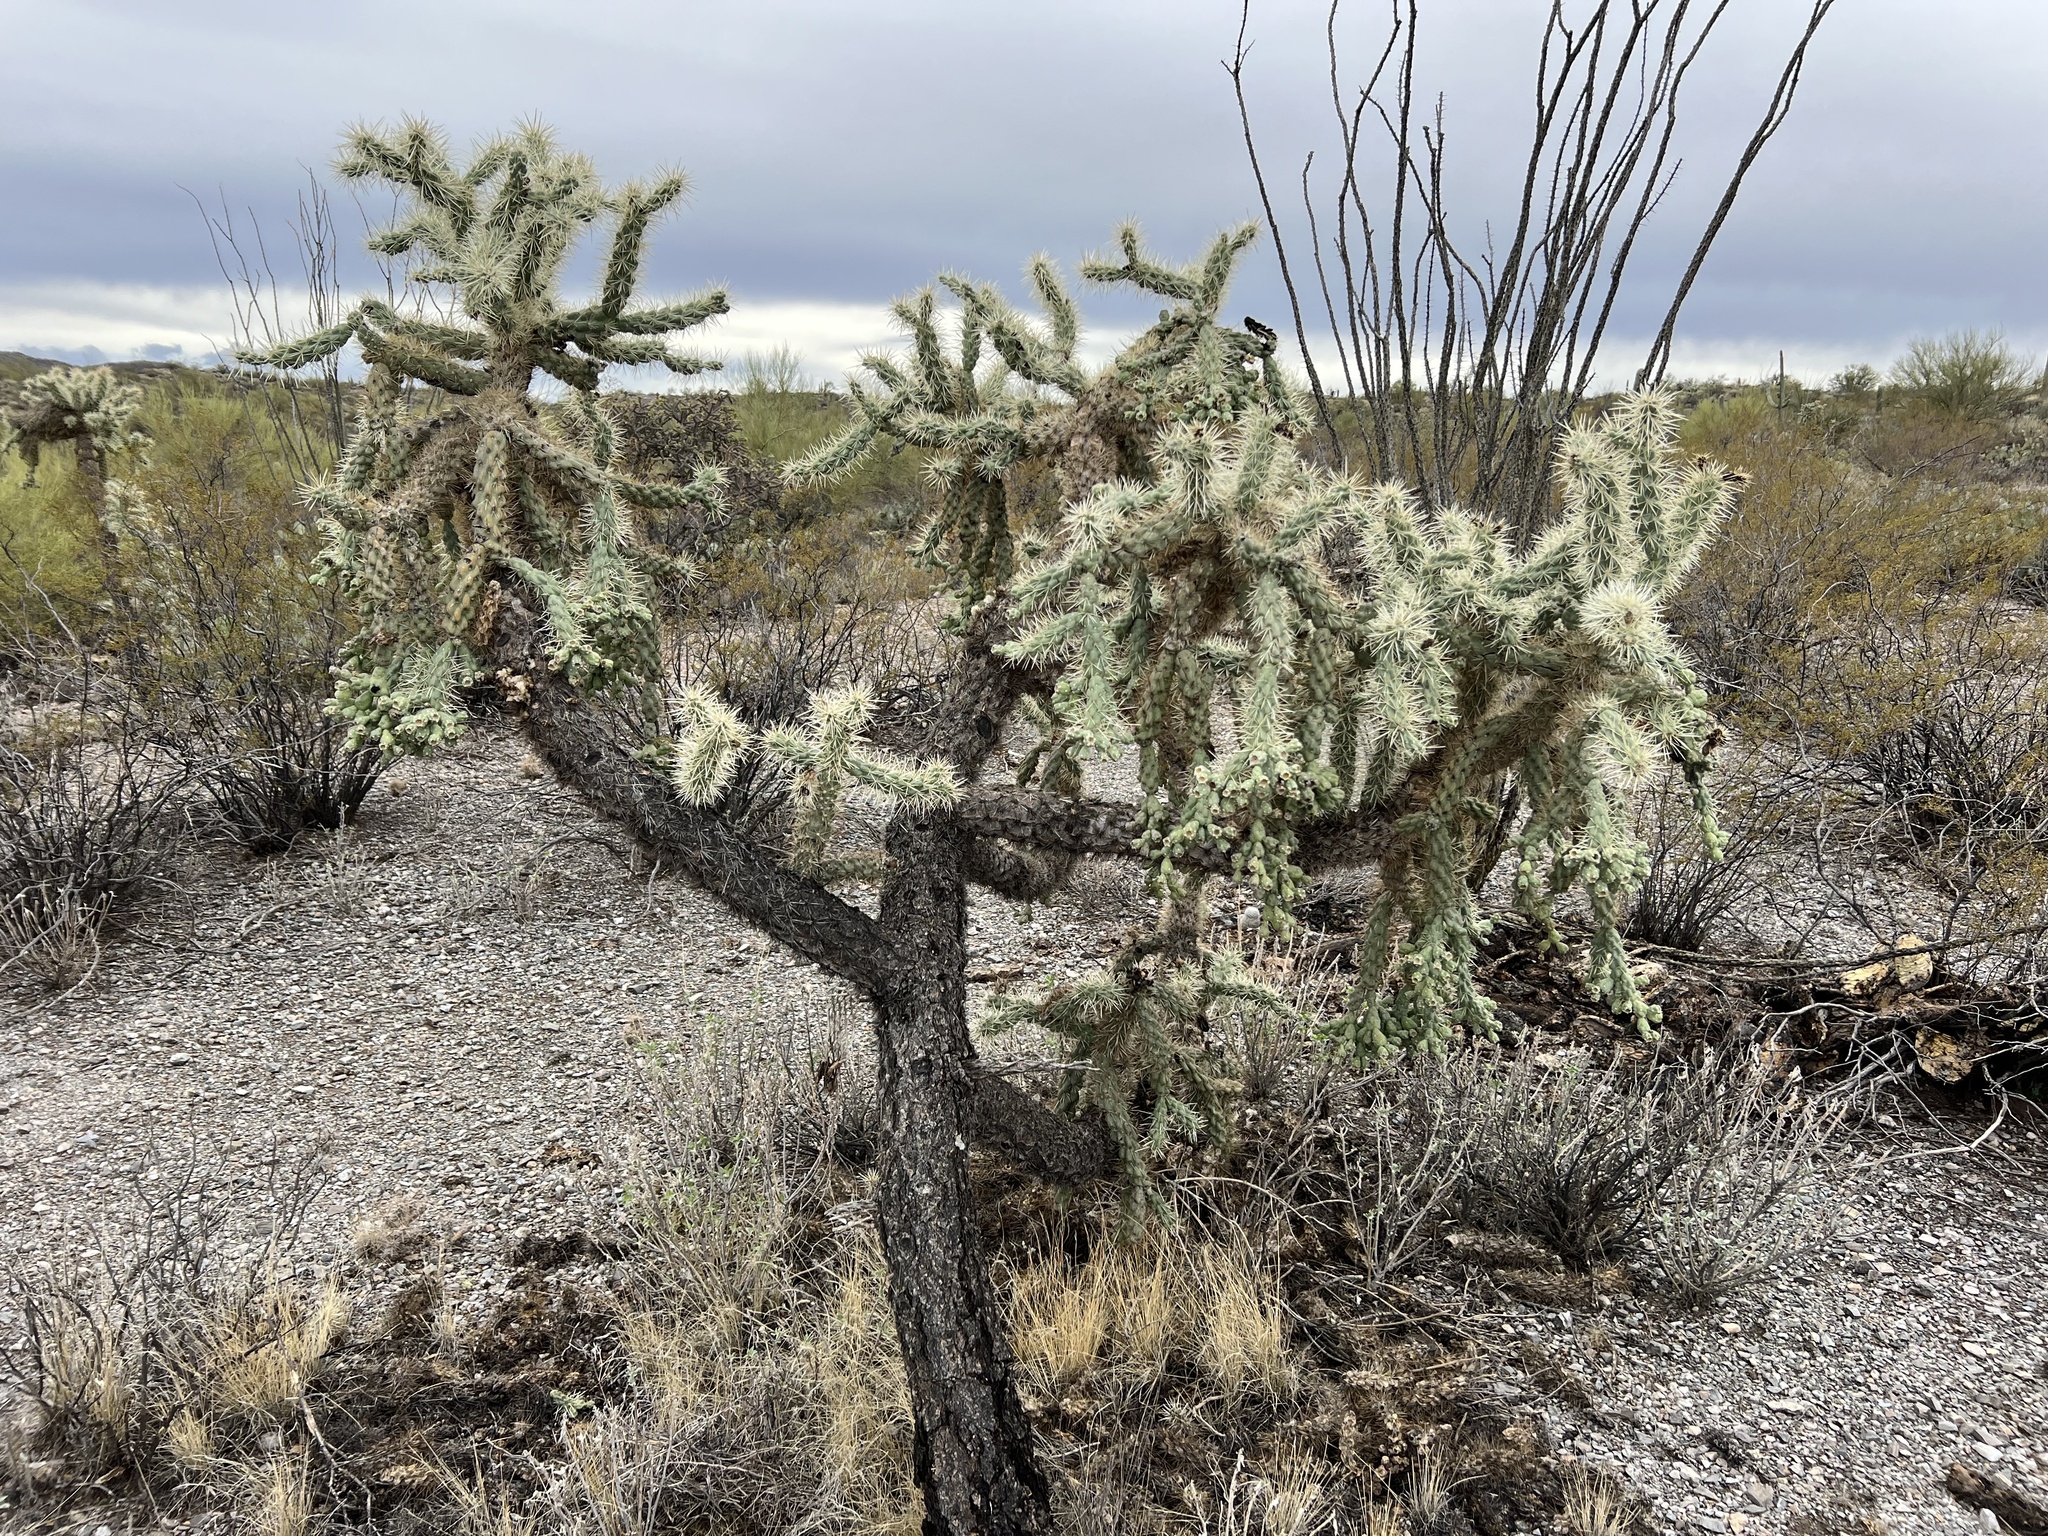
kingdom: Plantae
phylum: Tracheophyta
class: Magnoliopsida
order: Caryophyllales
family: Cactaceae
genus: Cylindropuntia
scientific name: Cylindropuntia fulgida
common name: Jumping cholla
